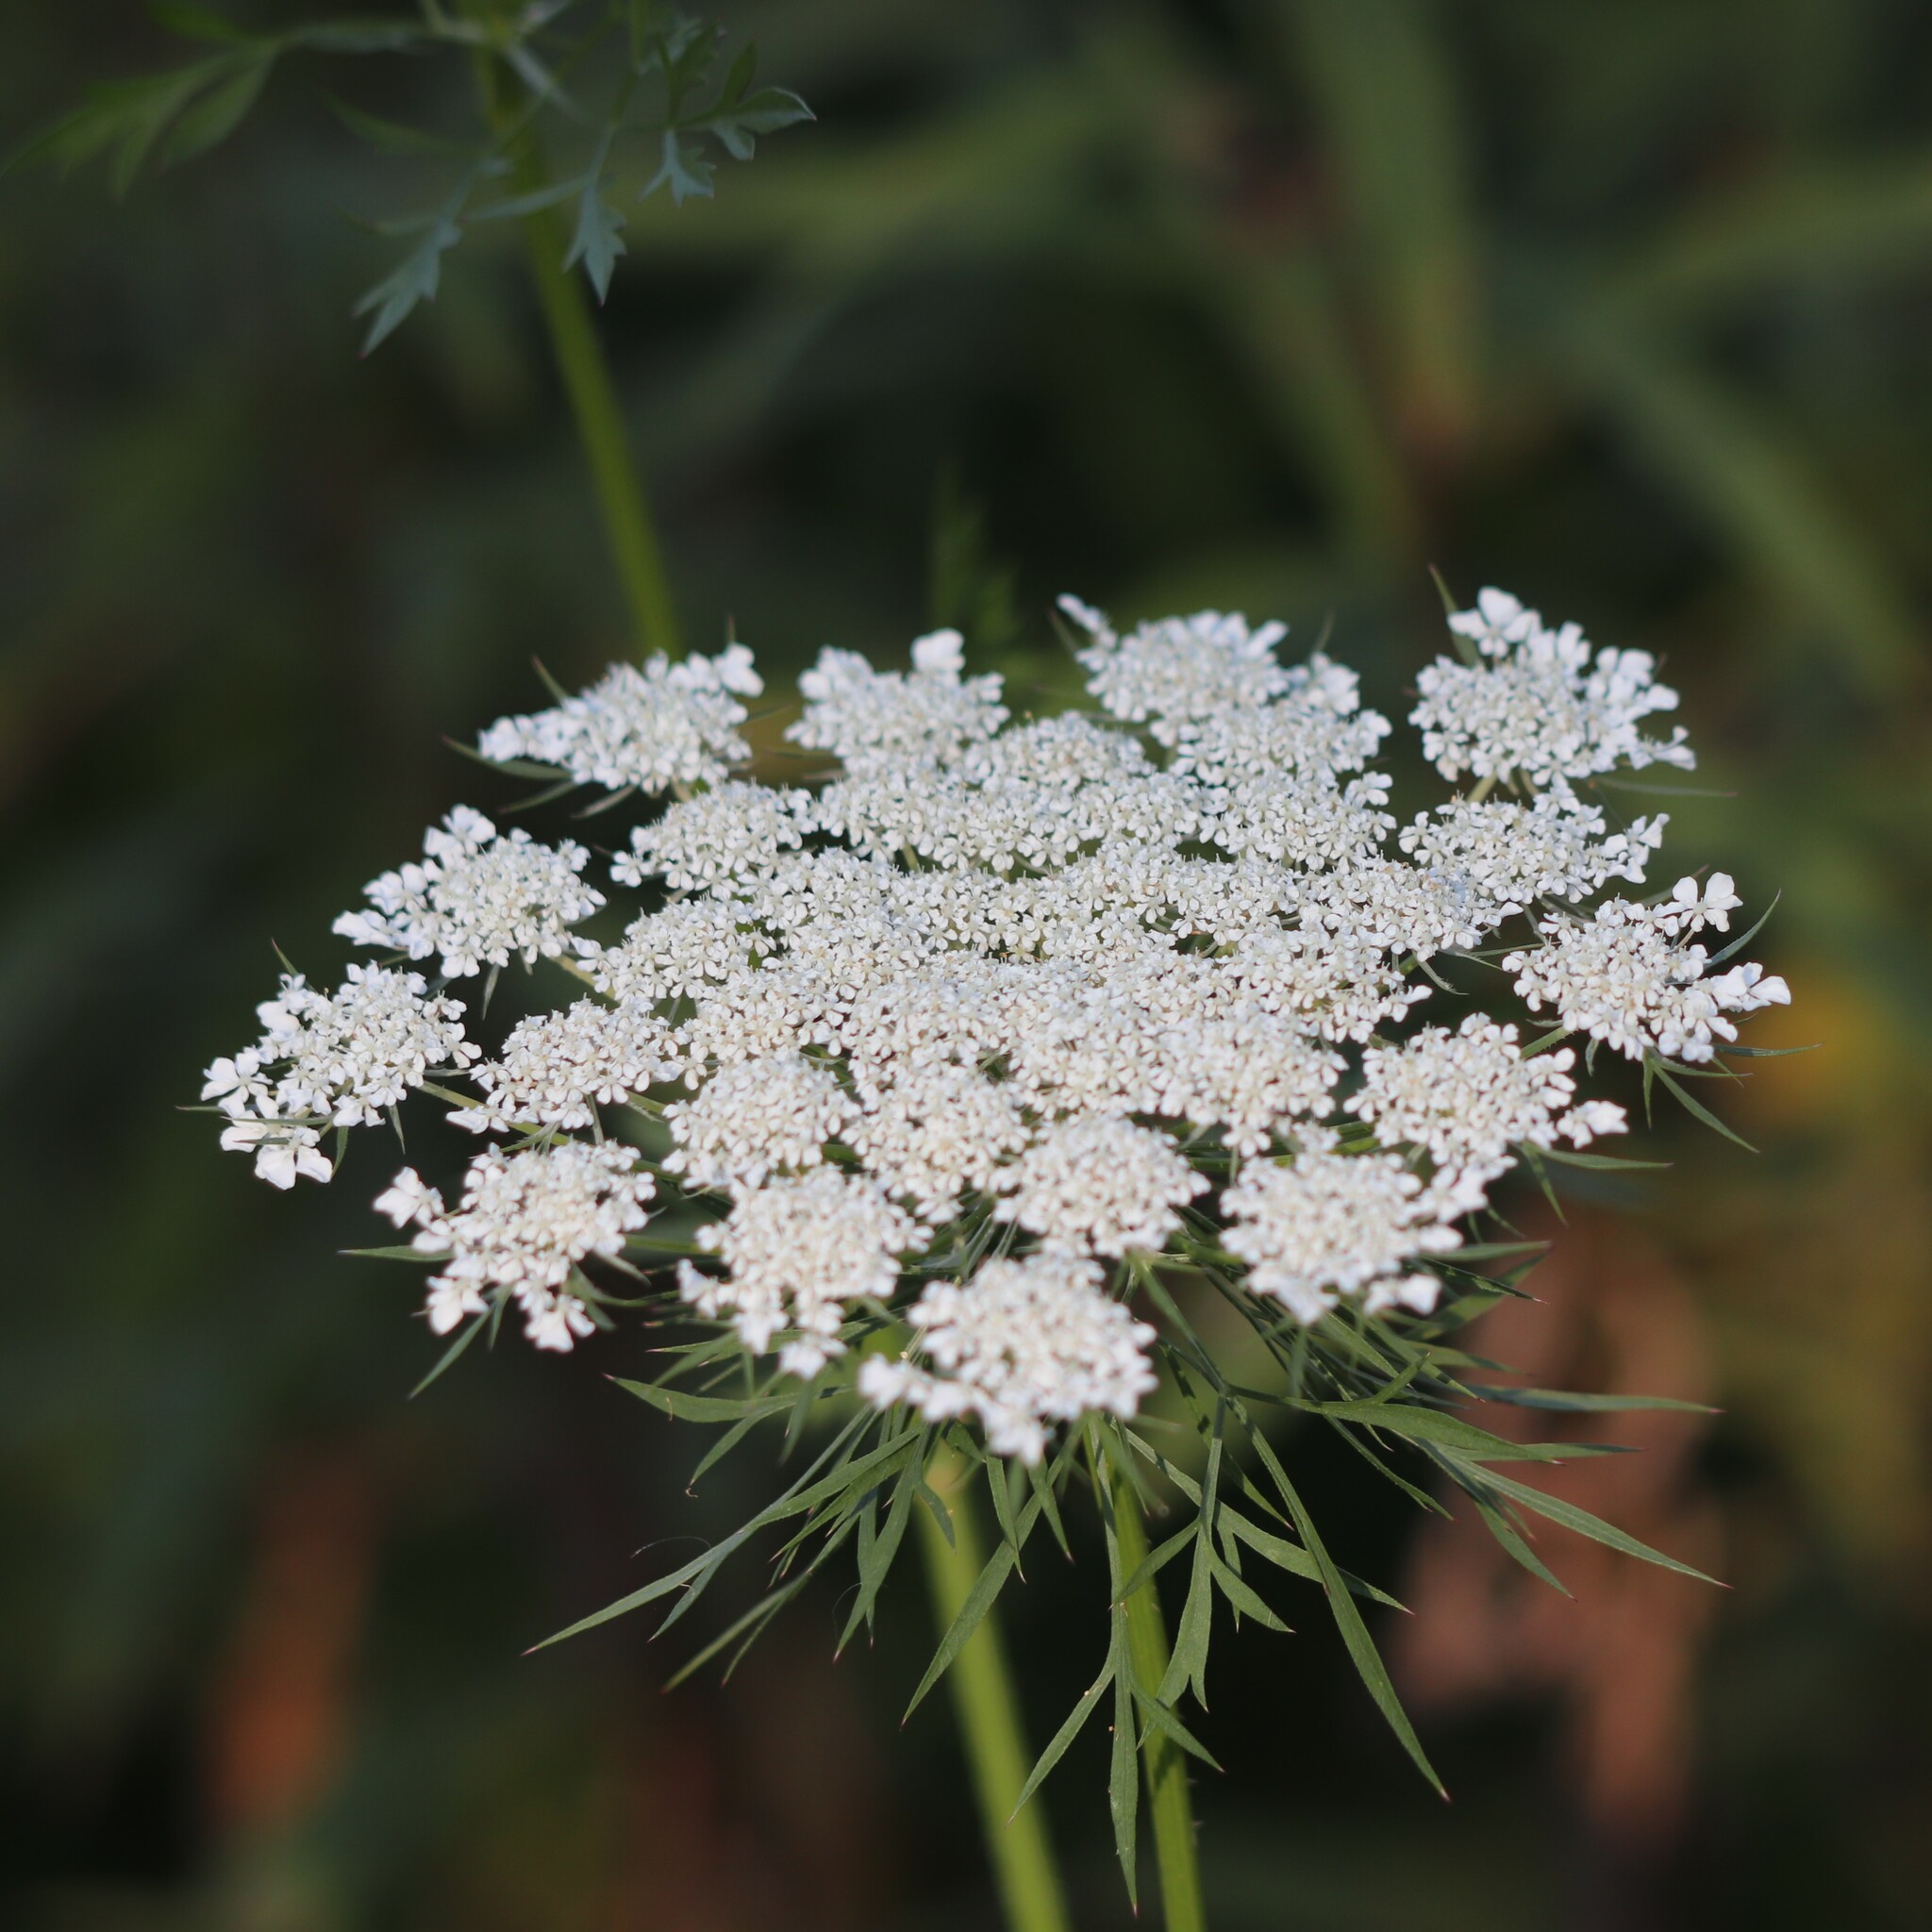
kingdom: Plantae
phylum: Tracheophyta
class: Magnoliopsida
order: Apiales
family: Apiaceae
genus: Daucus
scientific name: Daucus carota
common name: Wild carrot
